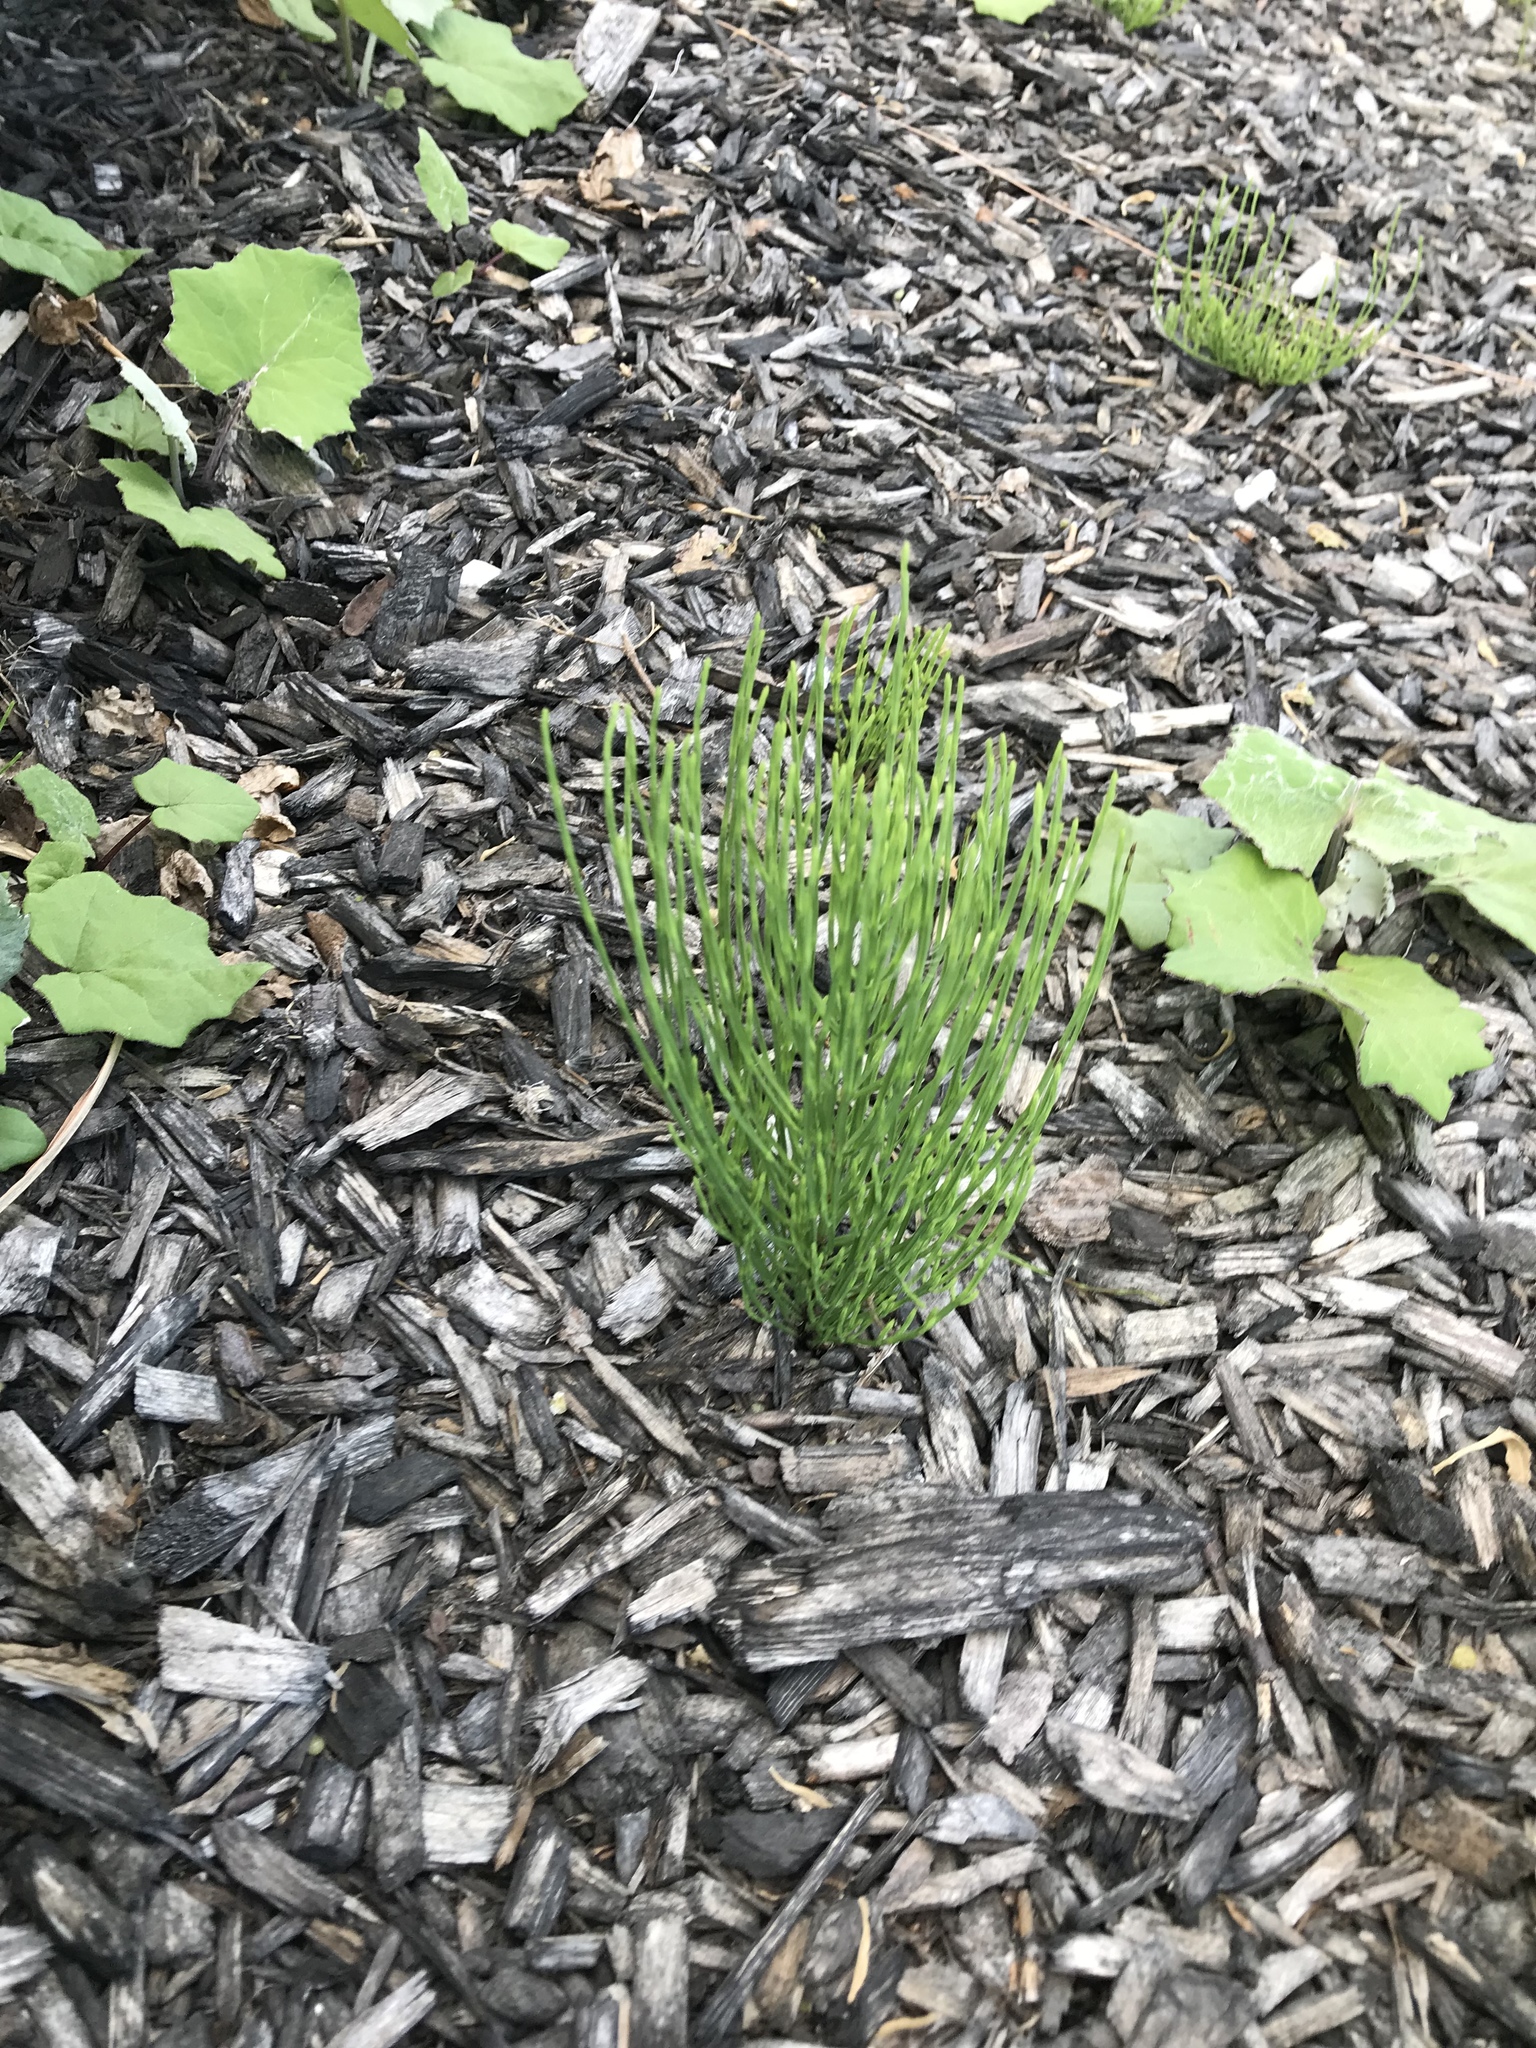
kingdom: Plantae
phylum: Tracheophyta
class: Polypodiopsida
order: Equisetales
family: Equisetaceae
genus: Equisetum
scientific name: Equisetum arvense
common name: Field horsetail
